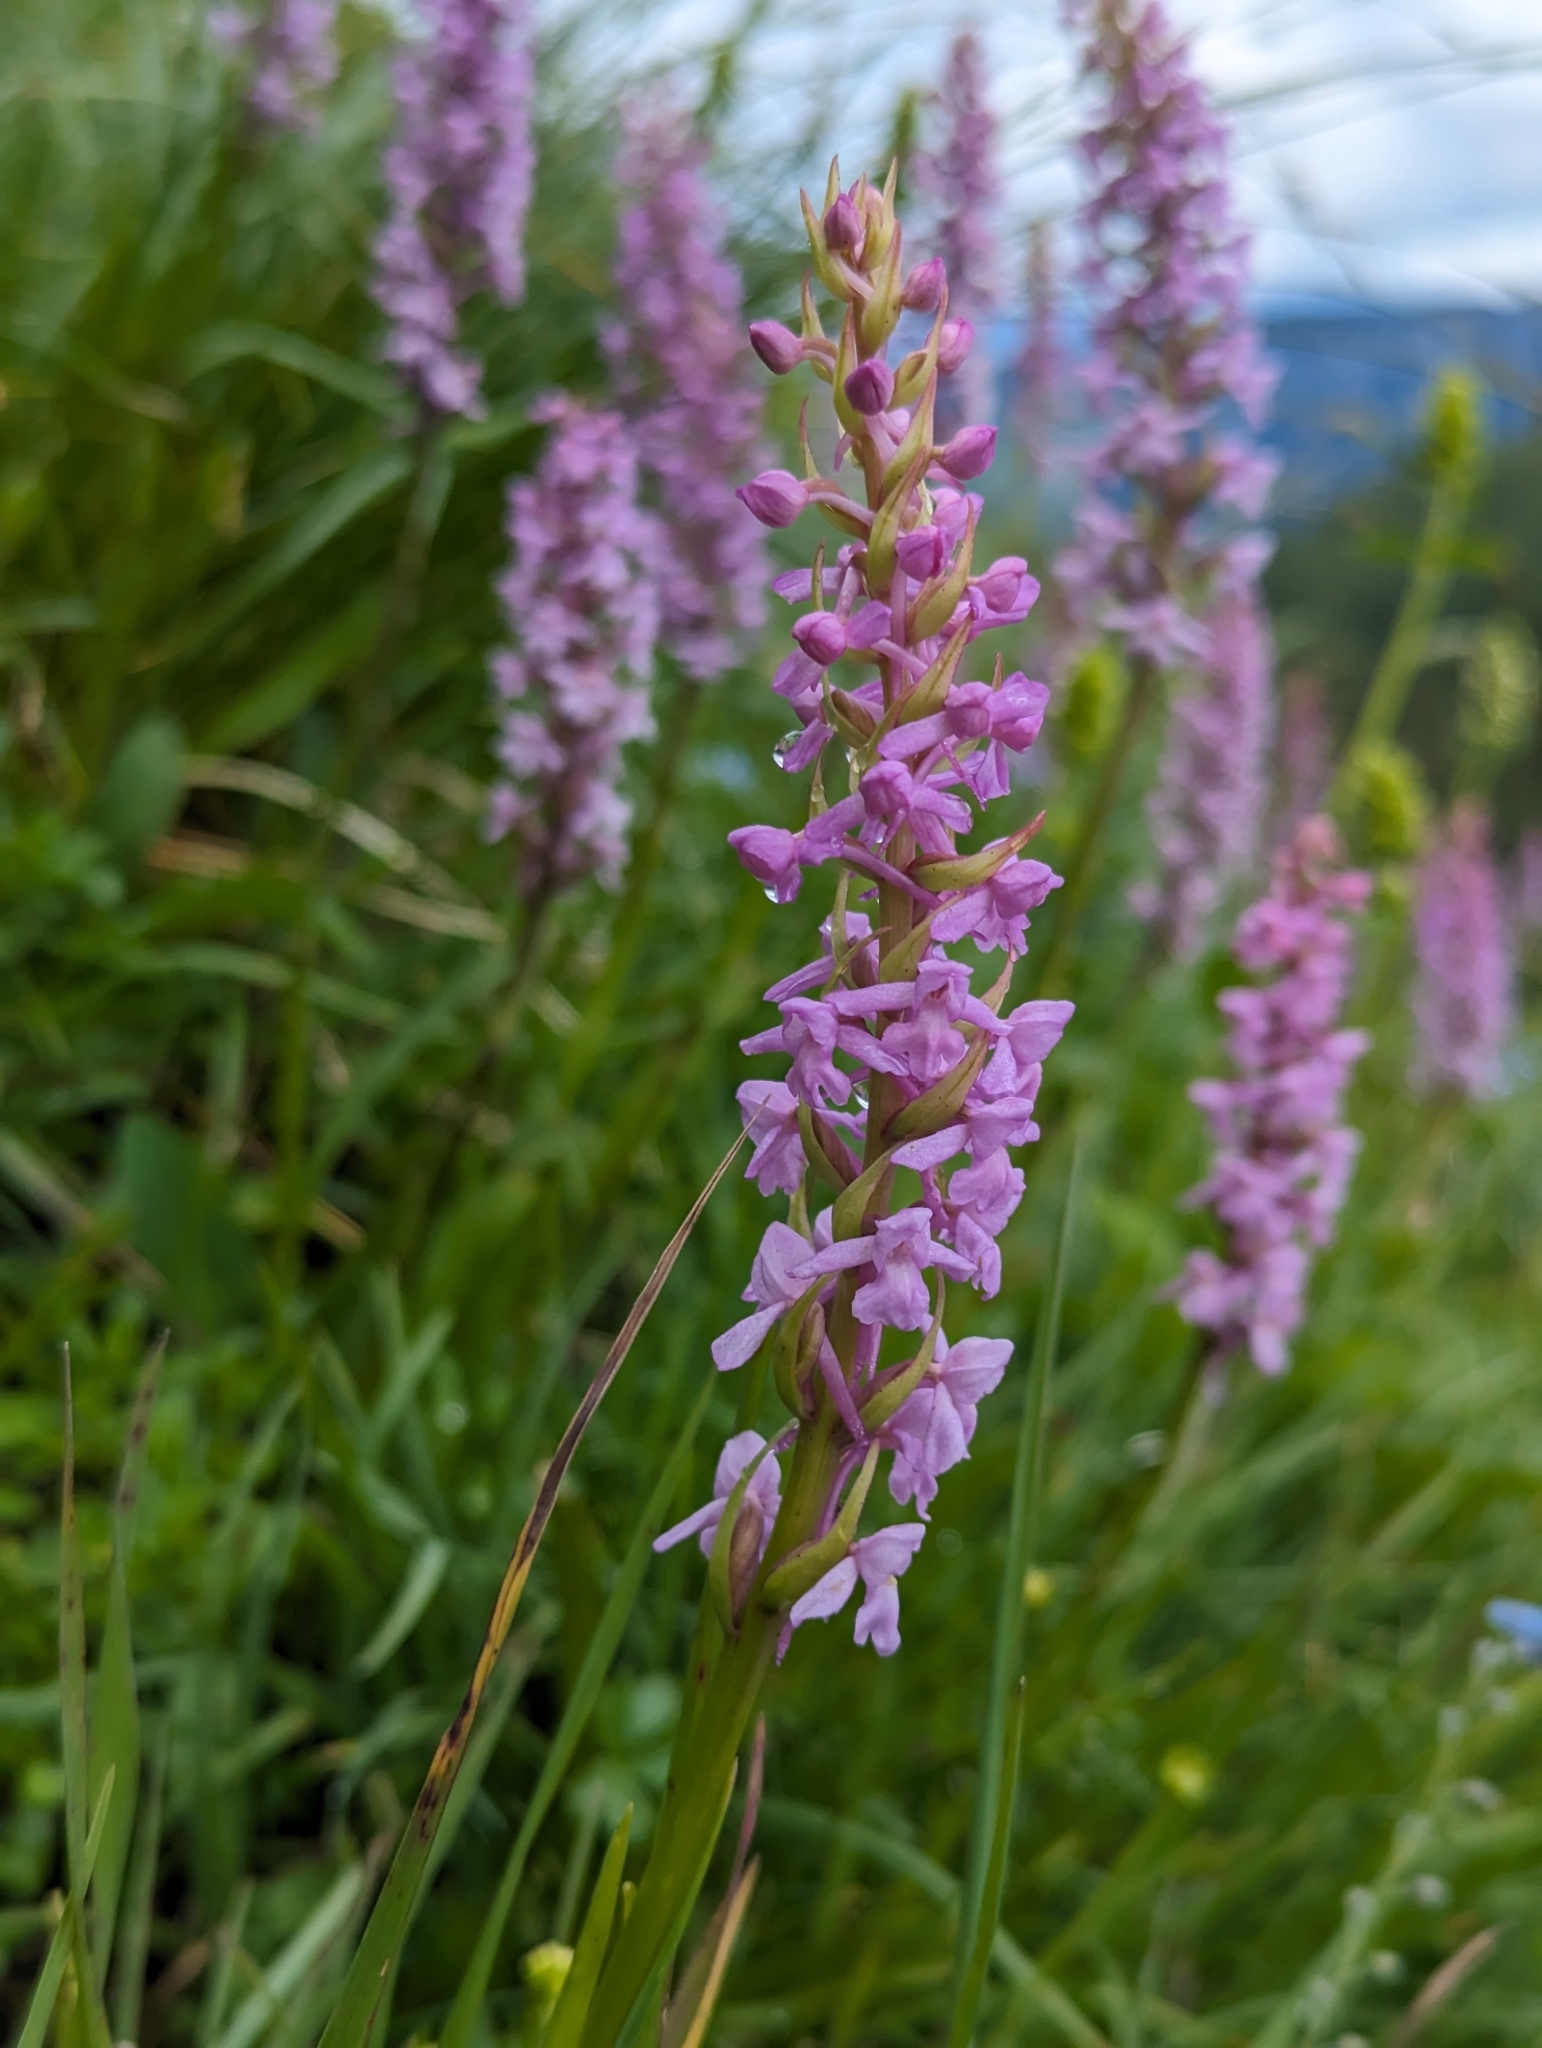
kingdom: Plantae
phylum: Tracheophyta
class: Liliopsida
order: Asparagales
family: Orchidaceae
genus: Gymnadenia
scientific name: Gymnadenia conopsea
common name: Fragrant orchid
